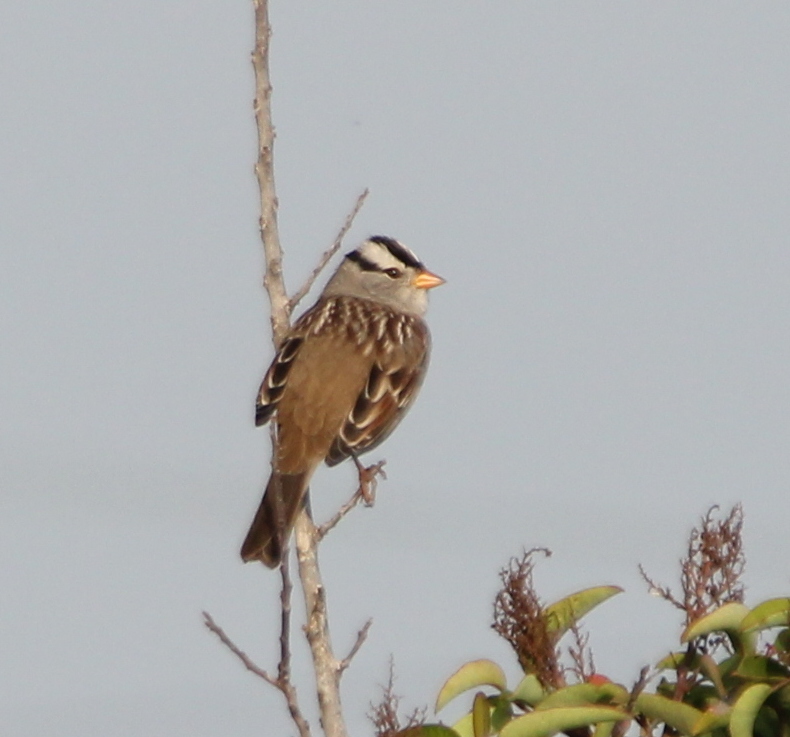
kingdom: Animalia
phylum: Chordata
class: Aves
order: Passeriformes
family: Passerellidae
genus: Zonotrichia
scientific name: Zonotrichia leucophrys
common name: White-crowned sparrow
